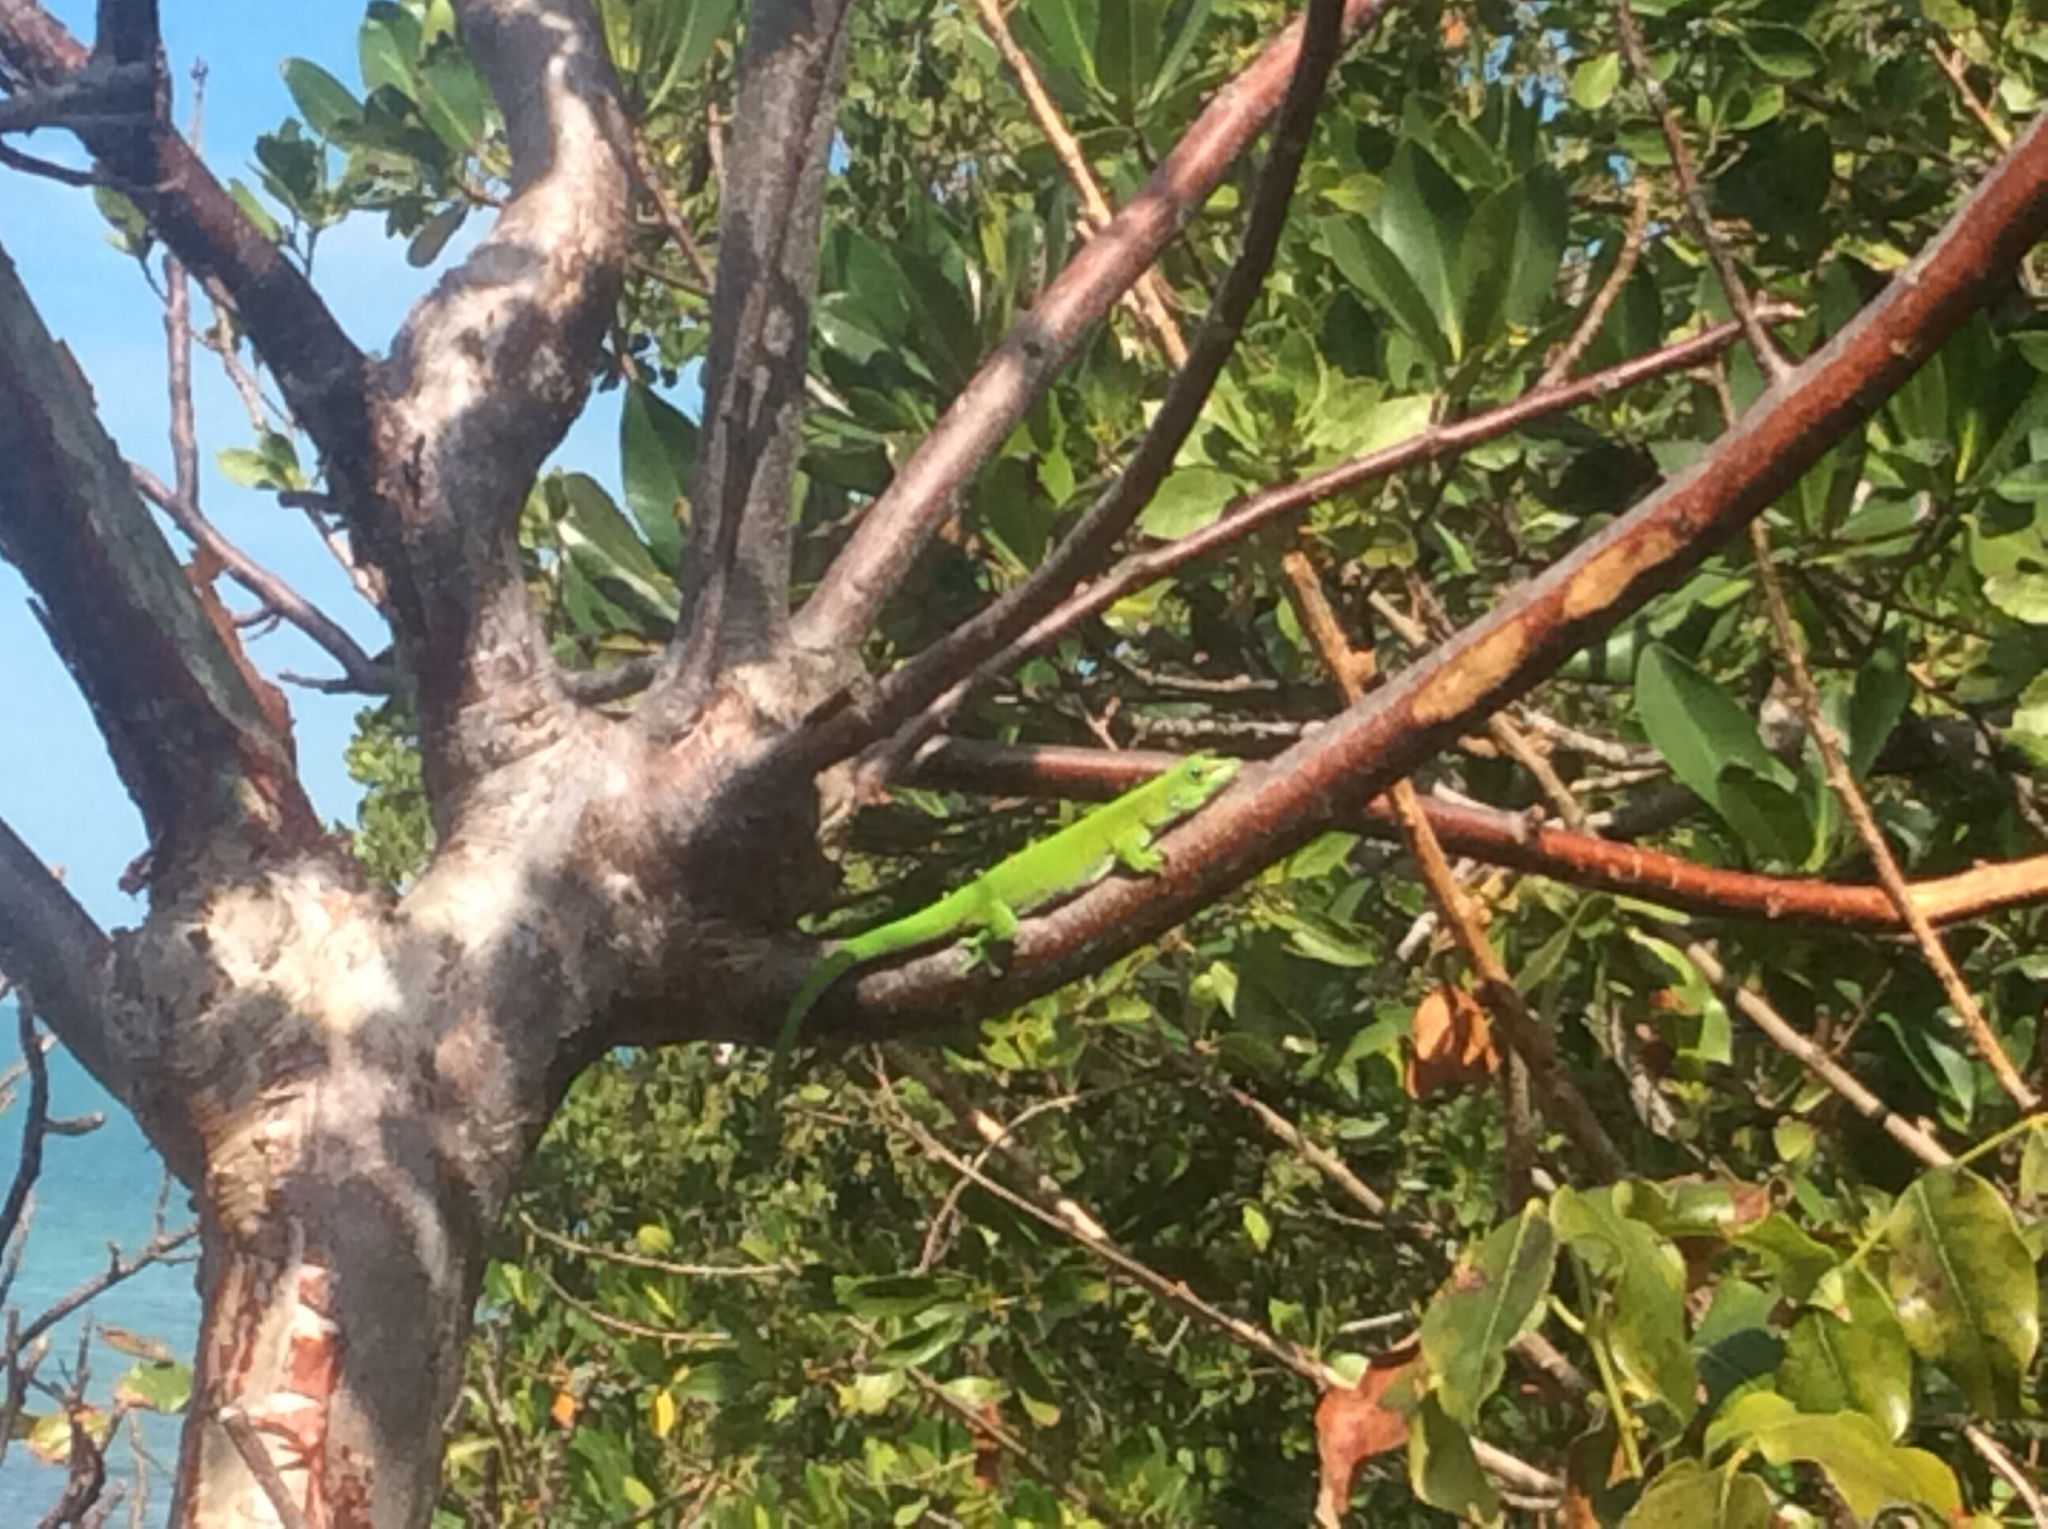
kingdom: Animalia
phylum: Chordata
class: Squamata
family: Gekkonidae
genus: Phelsuma
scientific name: Phelsuma grandis
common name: Madagascar giant day gecko
